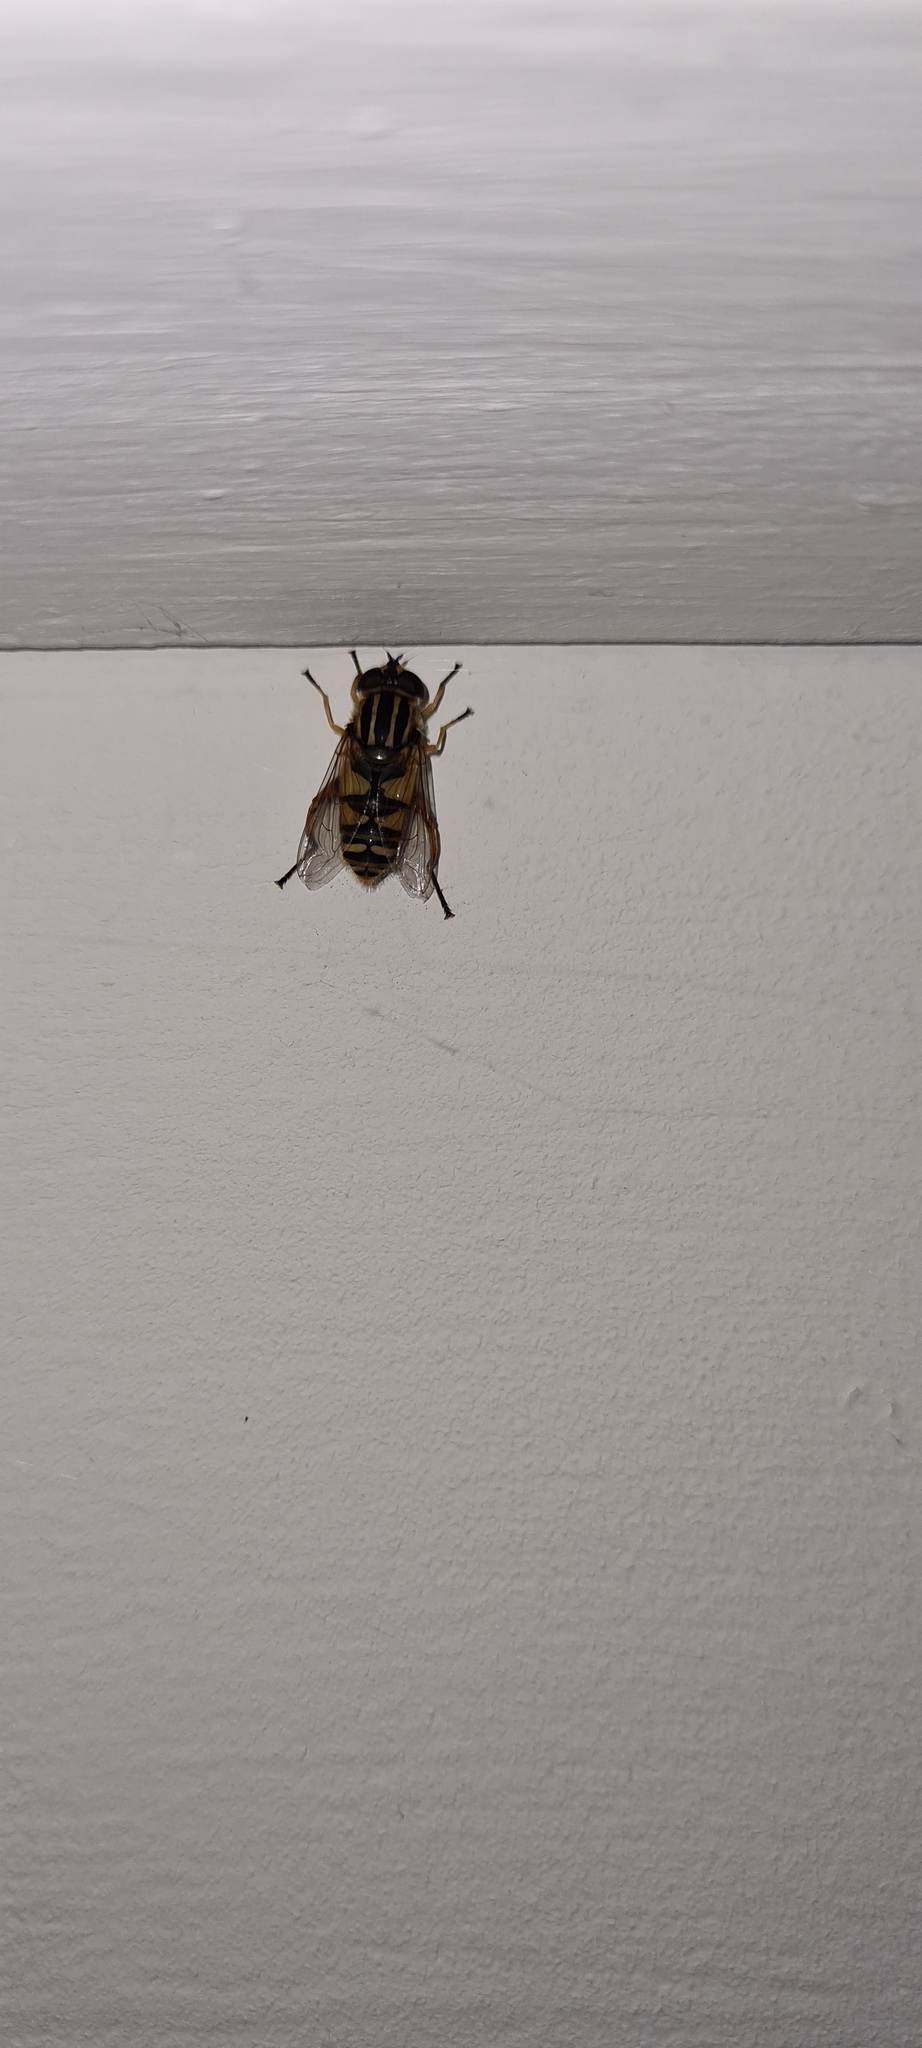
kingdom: Animalia
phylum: Arthropoda
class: Insecta
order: Diptera
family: Syrphidae
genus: Helophilus
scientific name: Helophilus pendulus
